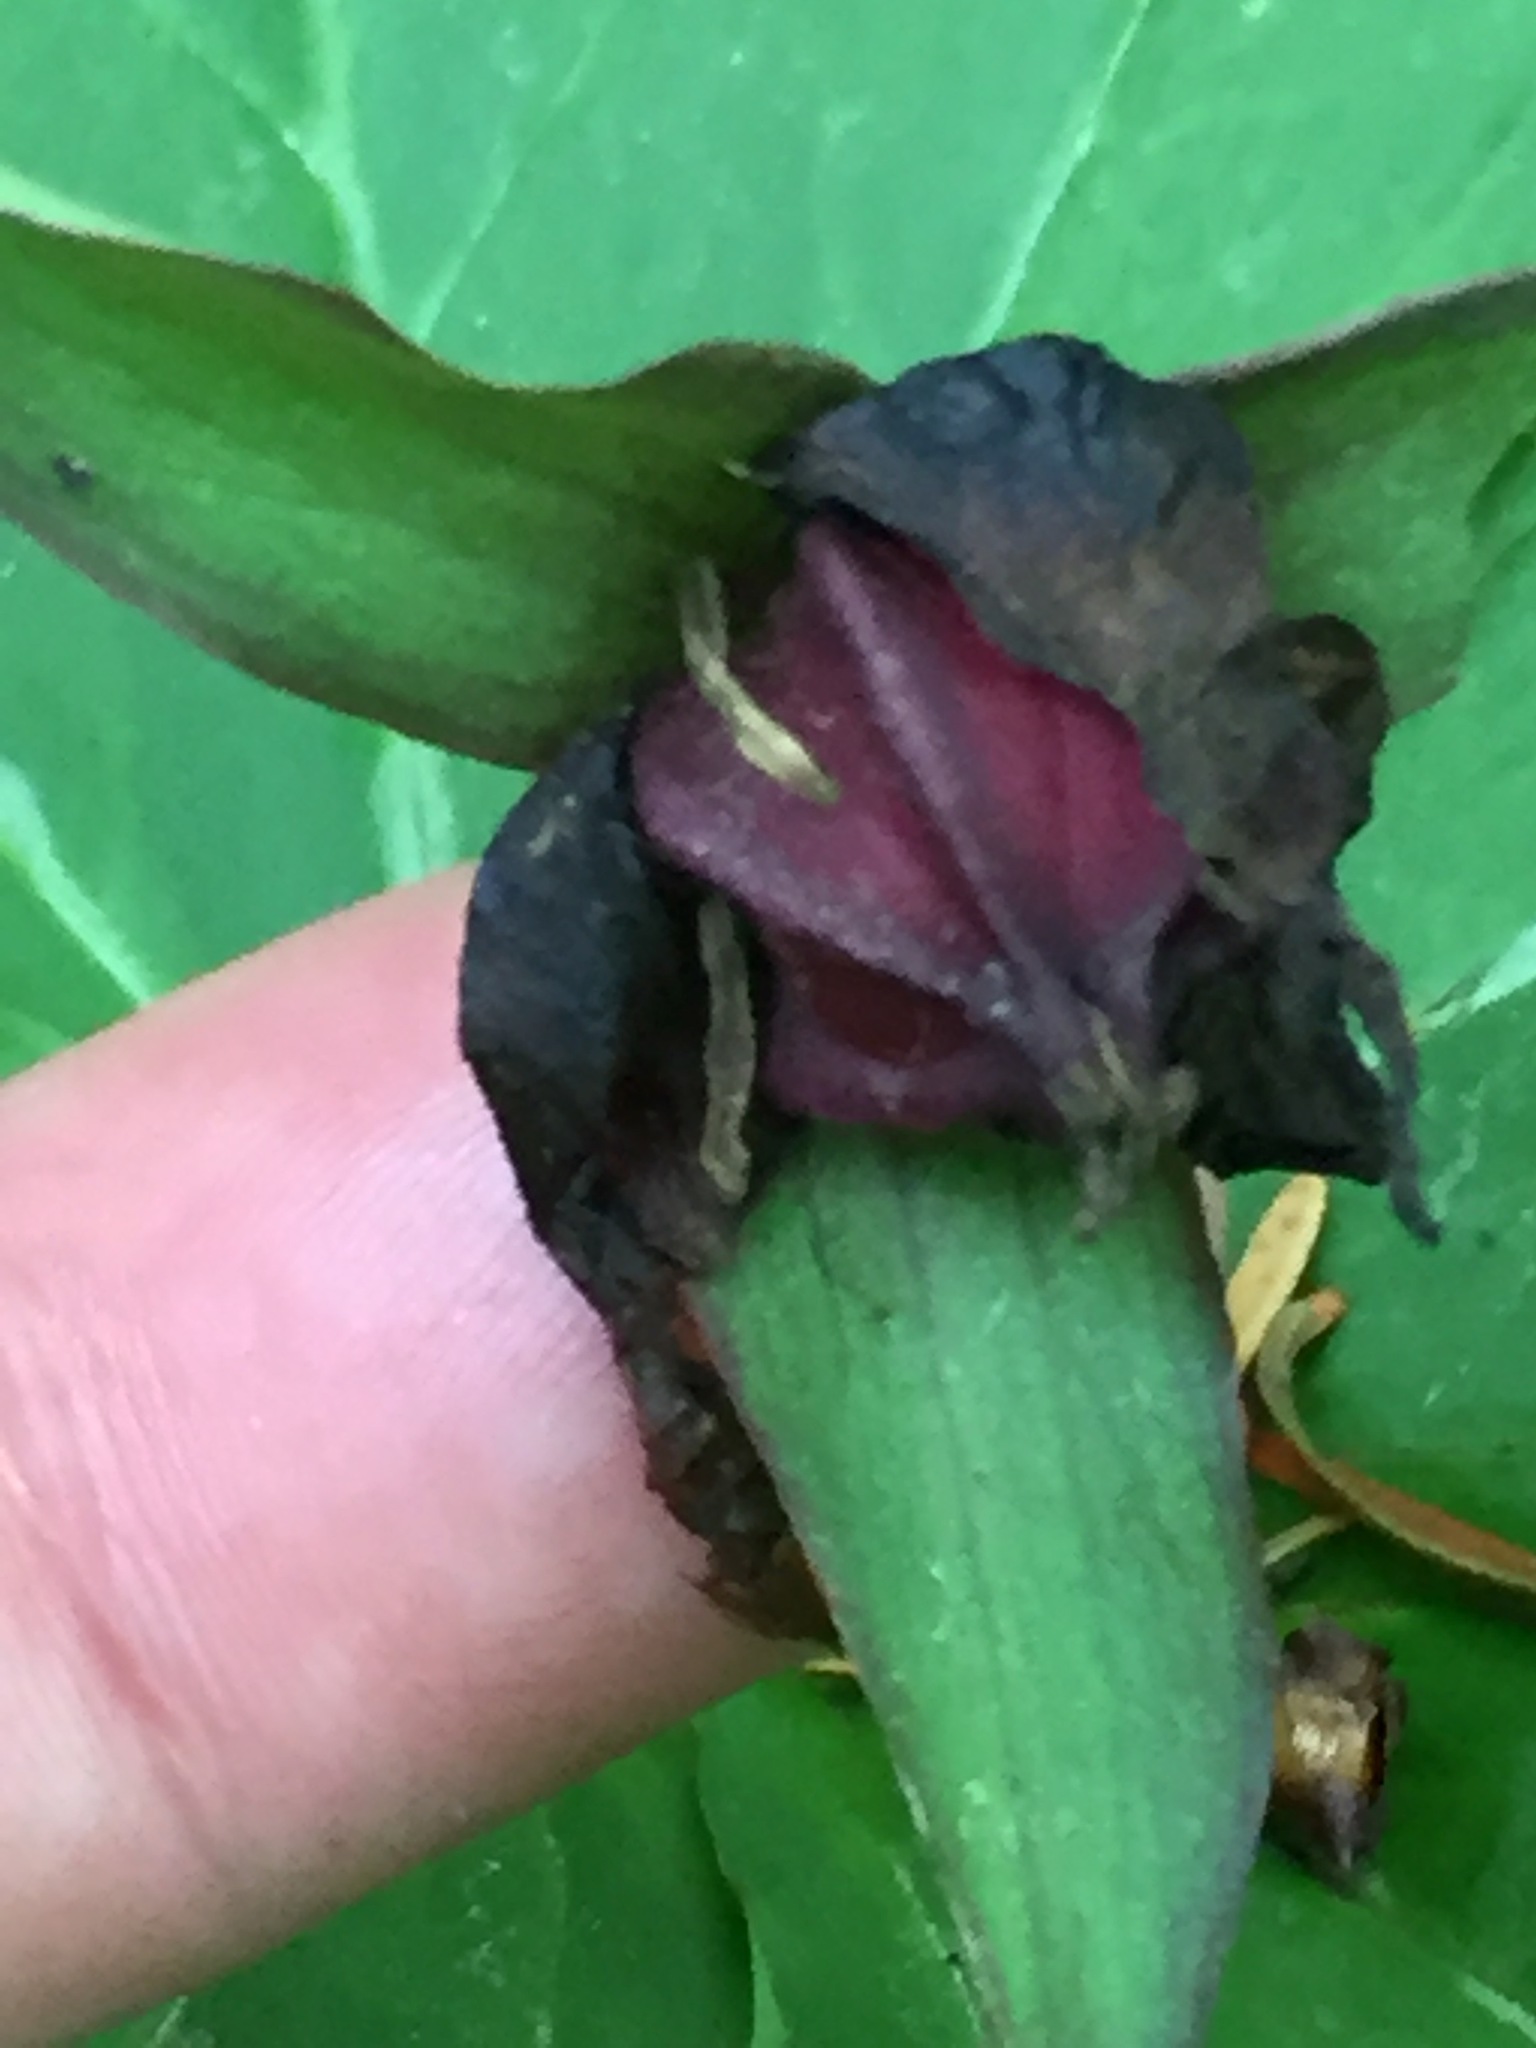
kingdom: Plantae
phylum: Tracheophyta
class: Liliopsida
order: Liliales
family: Melanthiaceae
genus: Trillium
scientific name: Trillium erectum
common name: Purple trillium
